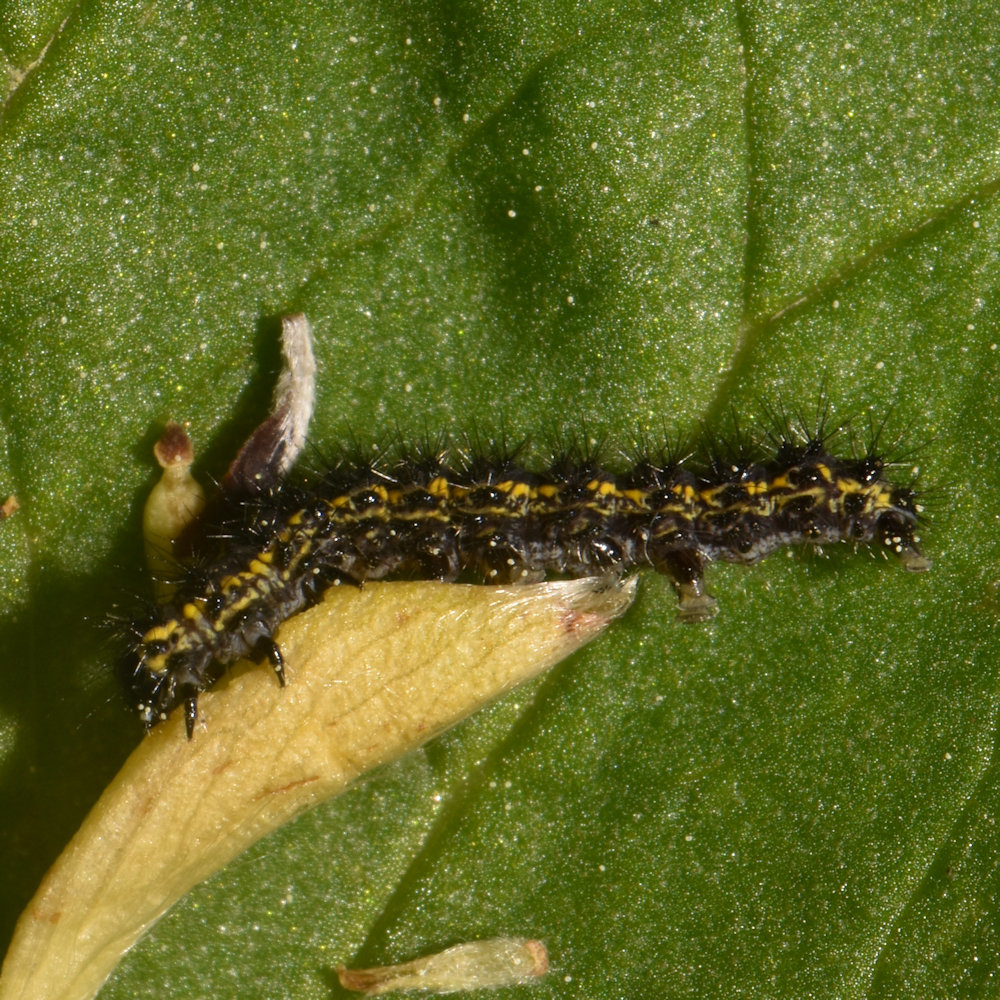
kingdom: Animalia
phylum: Arthropoda
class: Insecta
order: Lepidoptera
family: Erebidae
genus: Haploa
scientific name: Haploa confusa
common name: Confused haploa moth
